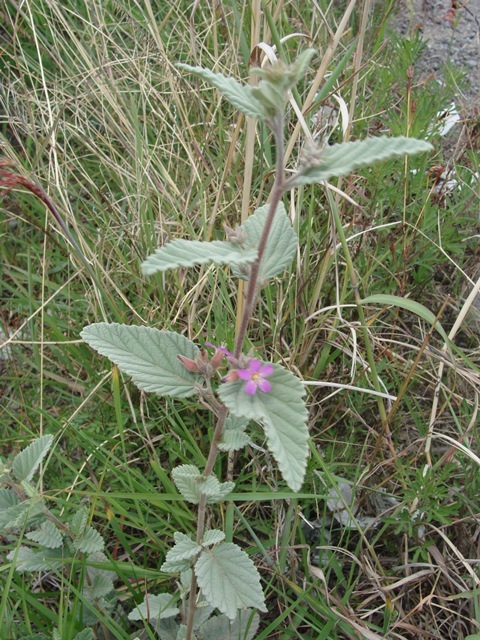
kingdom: Plantae
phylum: Tracheophyta
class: Magnoliopsida
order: Malvales
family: Malvaceae
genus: Melochia
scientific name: Melochia tomentosa
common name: Black torch
